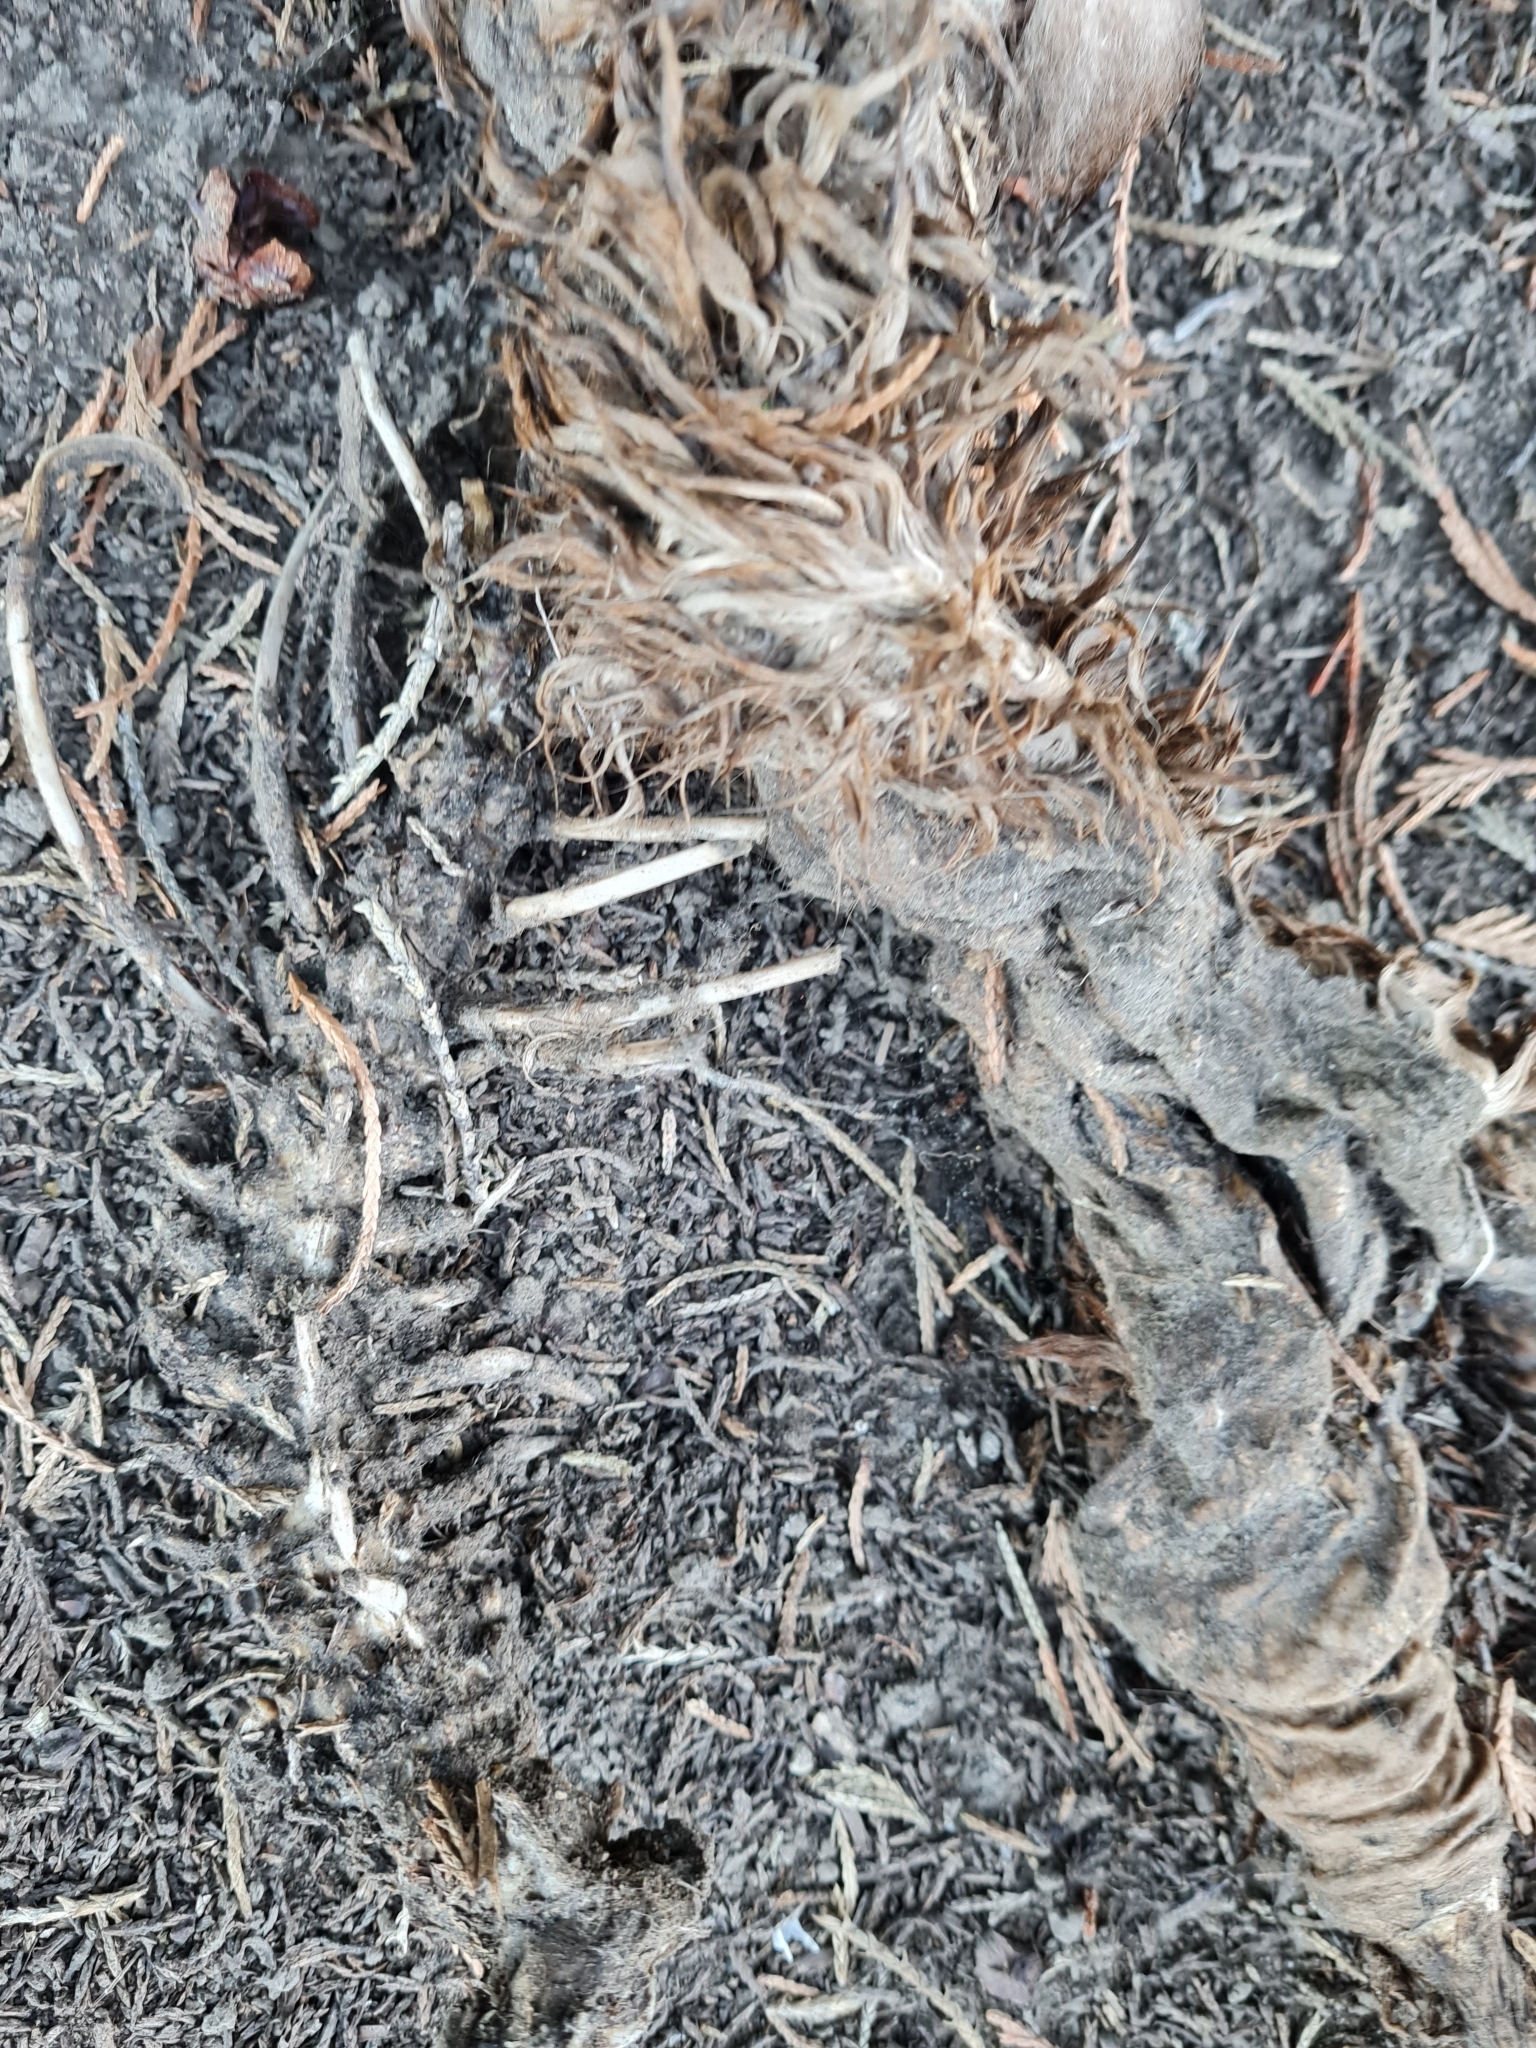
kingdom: Animalia
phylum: Chordata
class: Mammalia
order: Diprotodontia
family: Phalangeridae
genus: Trichosurus
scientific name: Trichosurus vulpecula
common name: Common brushtail
